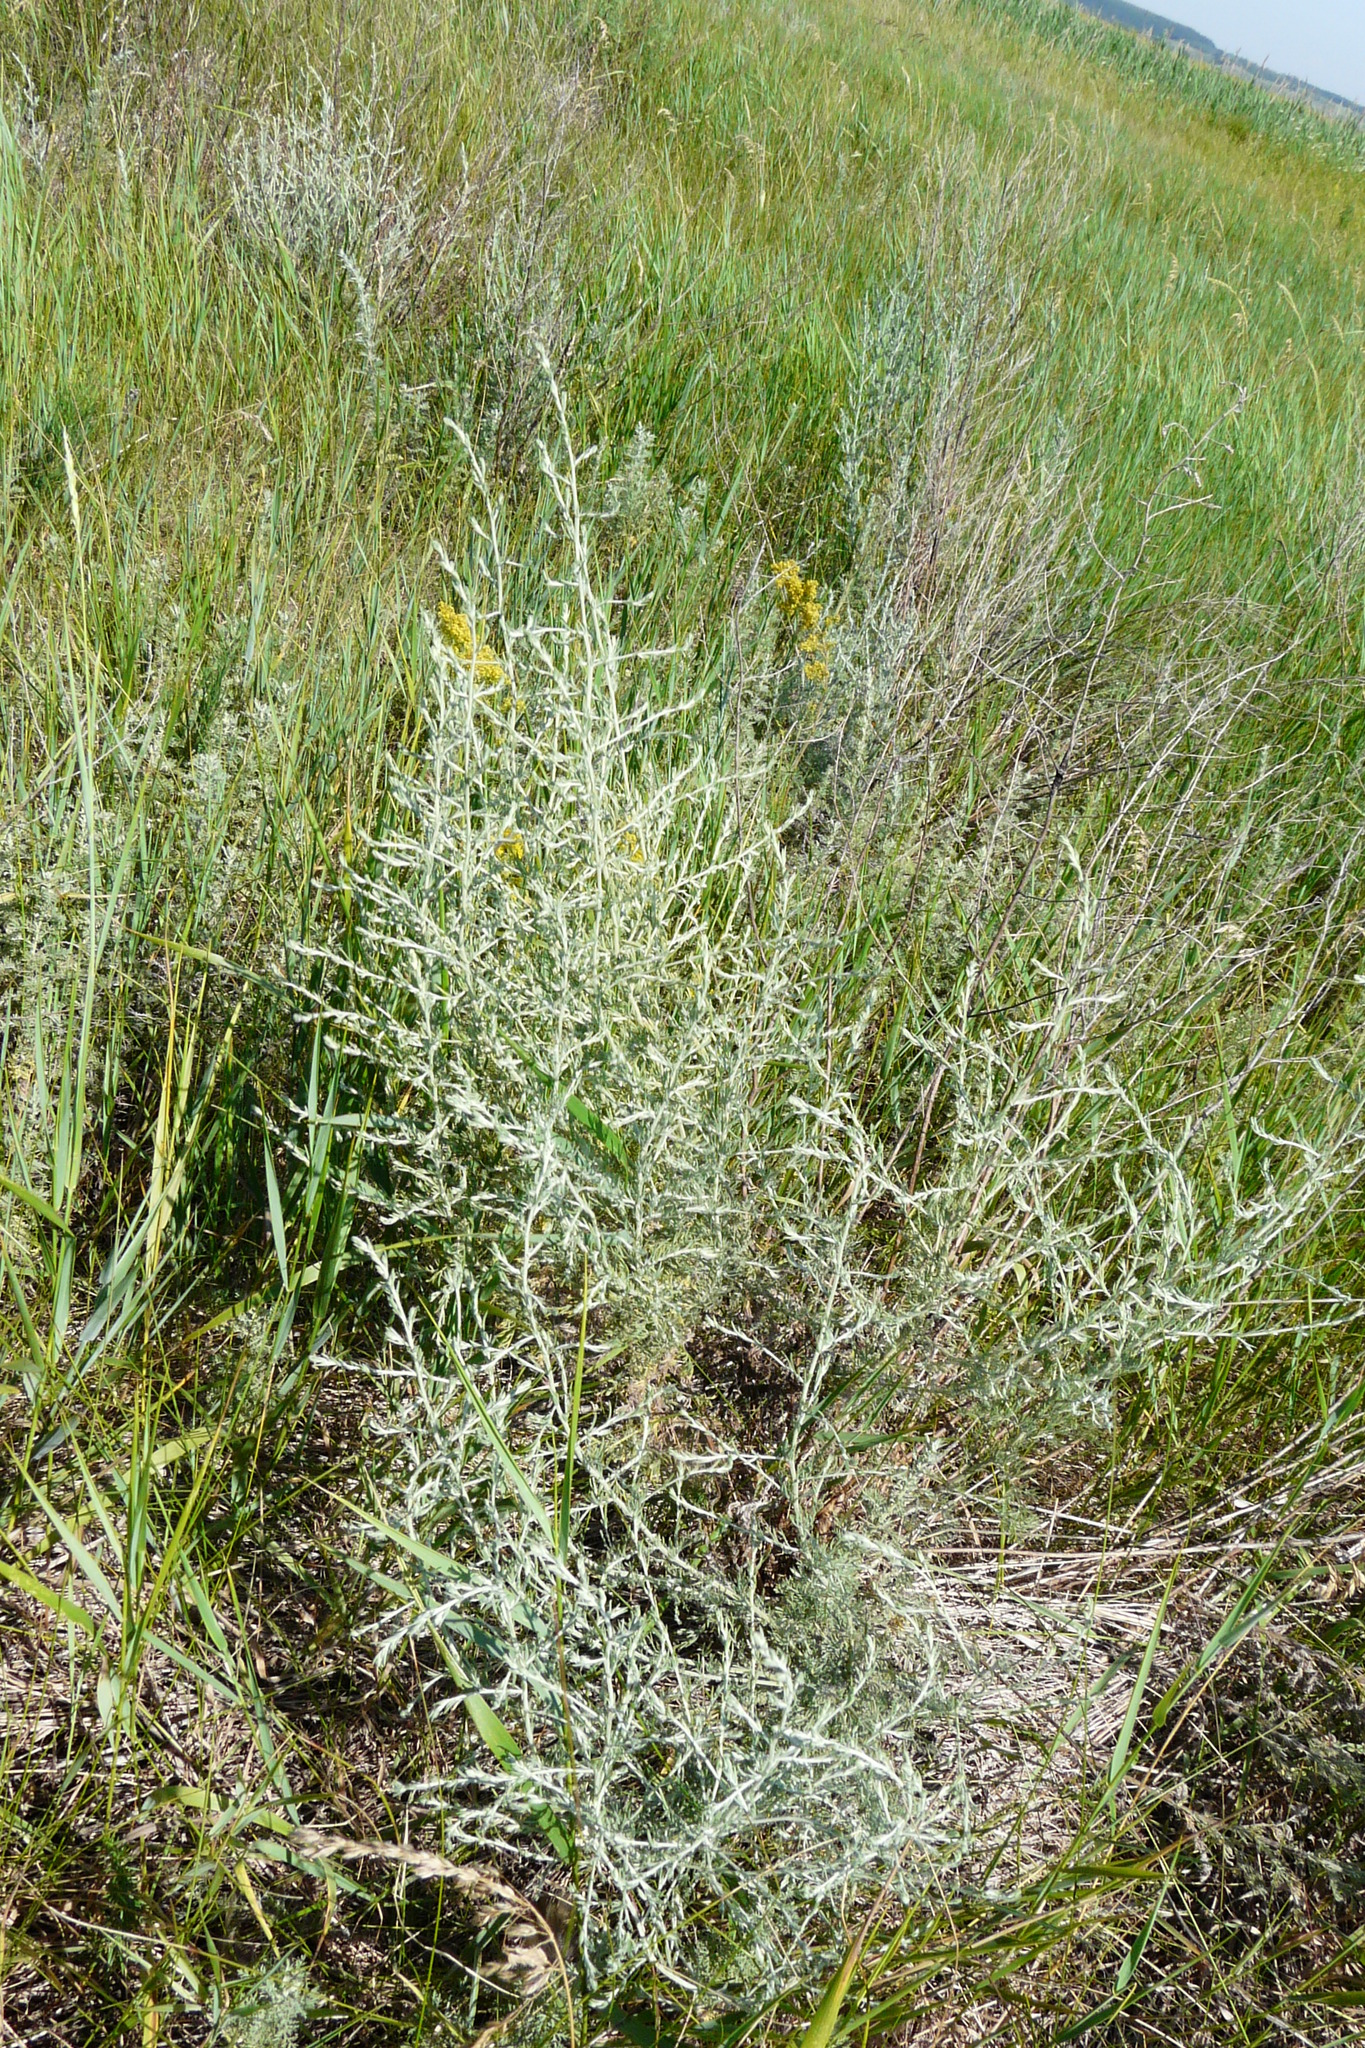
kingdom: Plantae
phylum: Tracheophyta
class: Magnoliopsida
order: Asterales
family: Asteraceae
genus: Artemisia
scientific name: Artemisia santonicum
